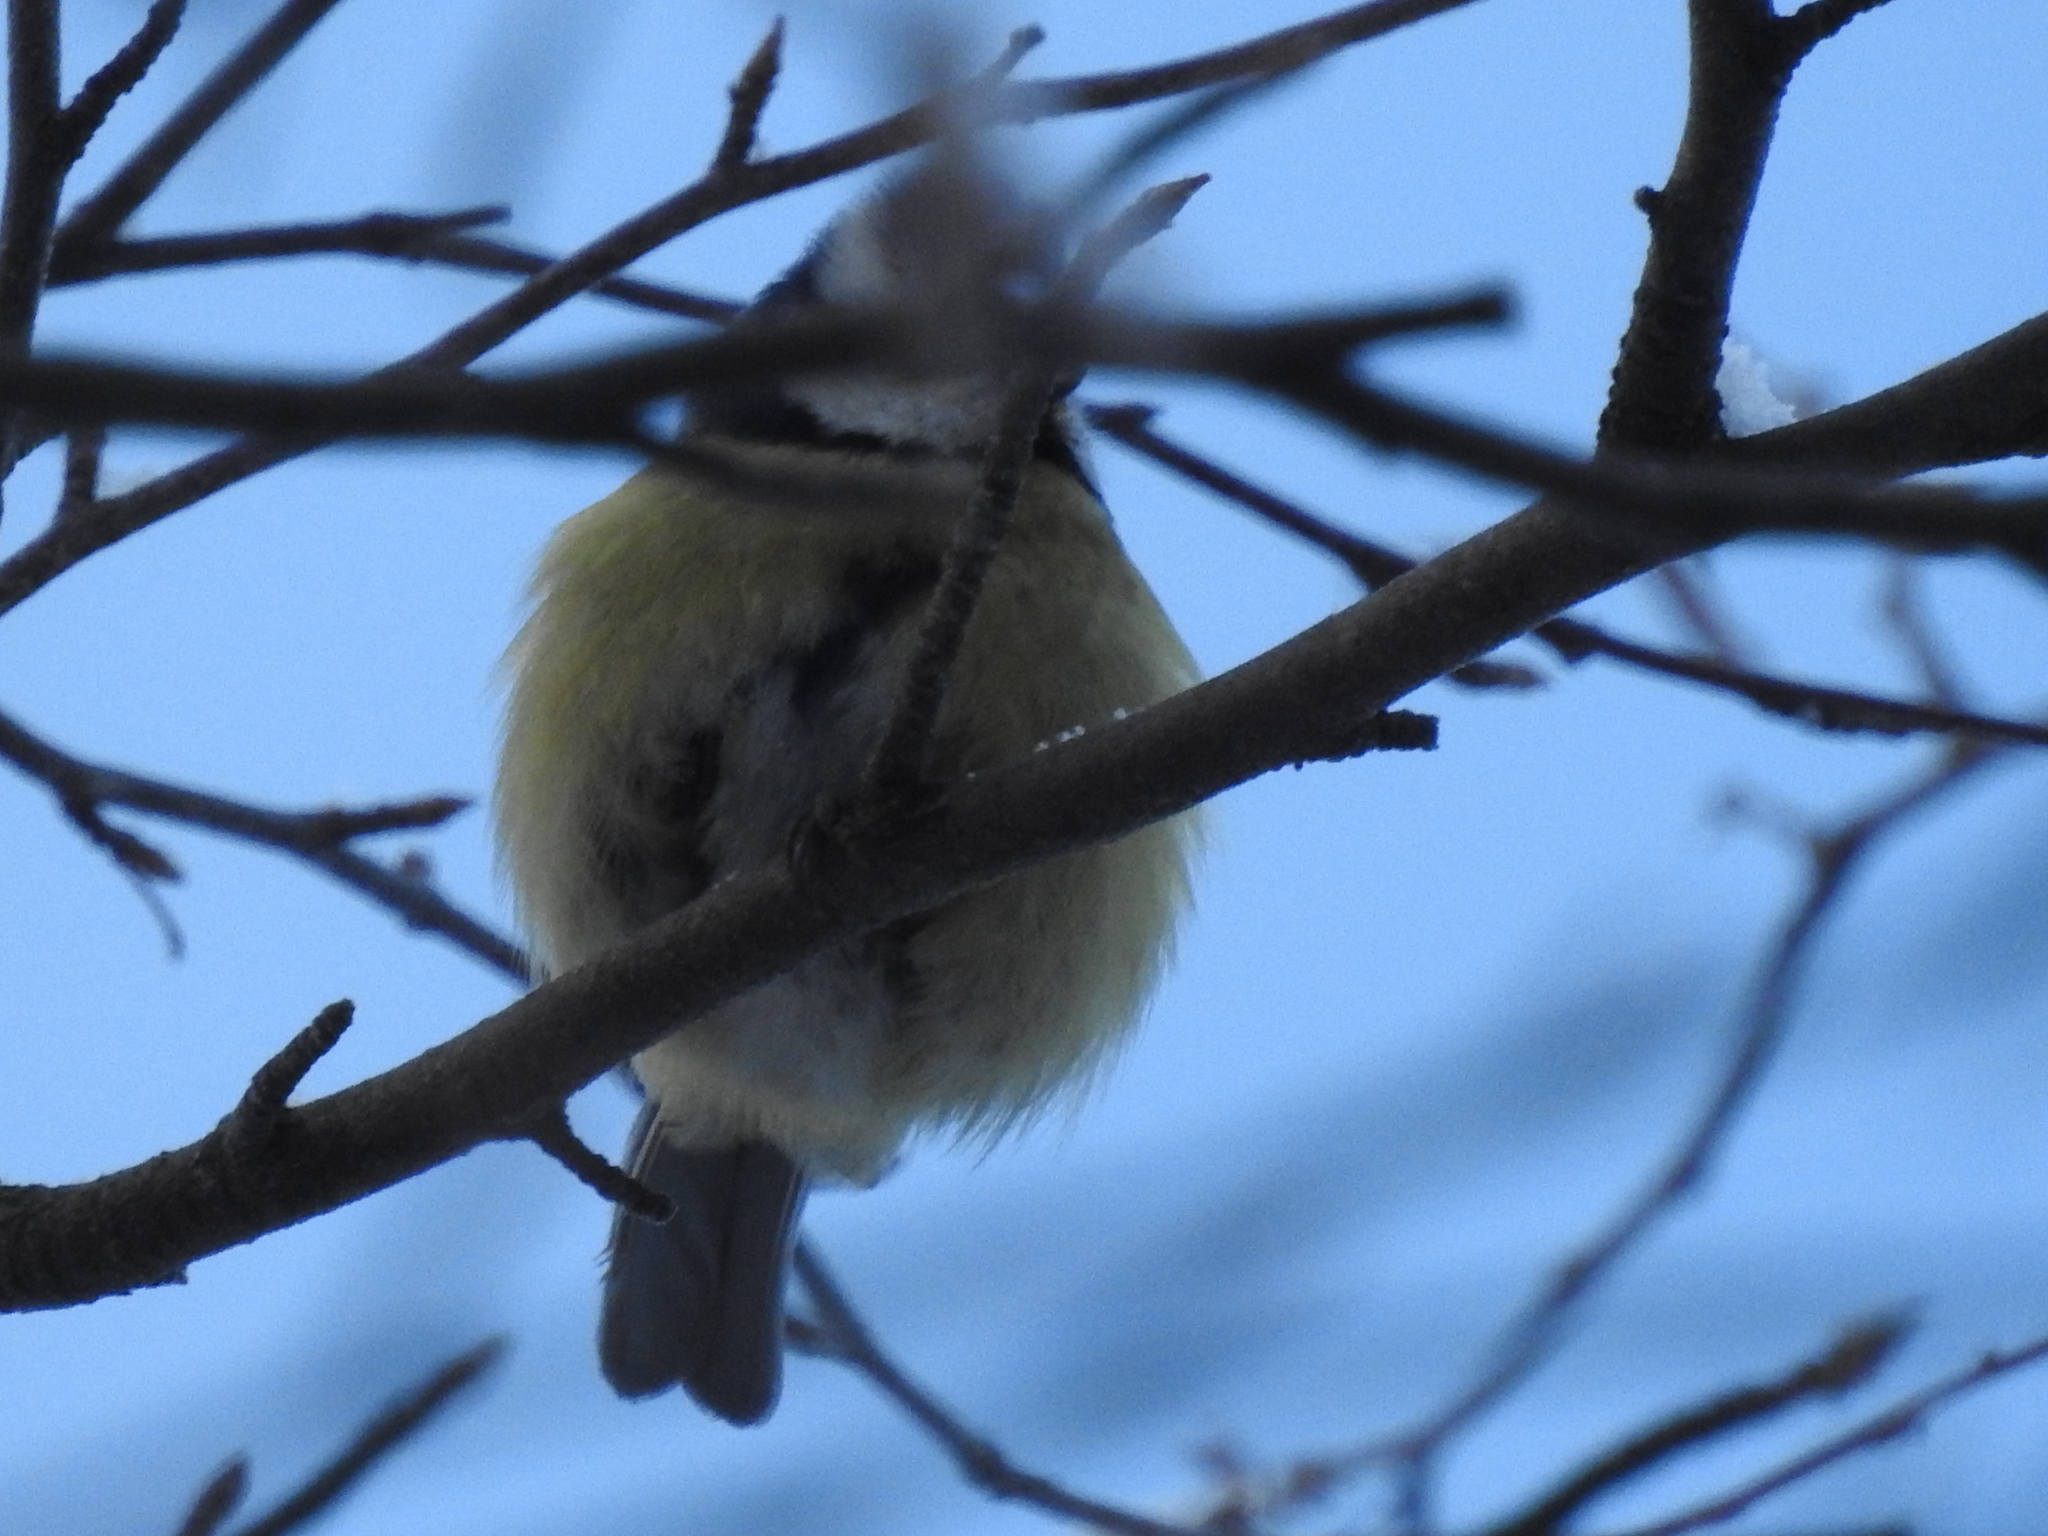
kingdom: Animalia
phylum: Chordata
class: Aves
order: Passeriformes
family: Paridae
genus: Cyanistes
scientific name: Cyanistes caeruleus
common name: Eurasian blue tit
